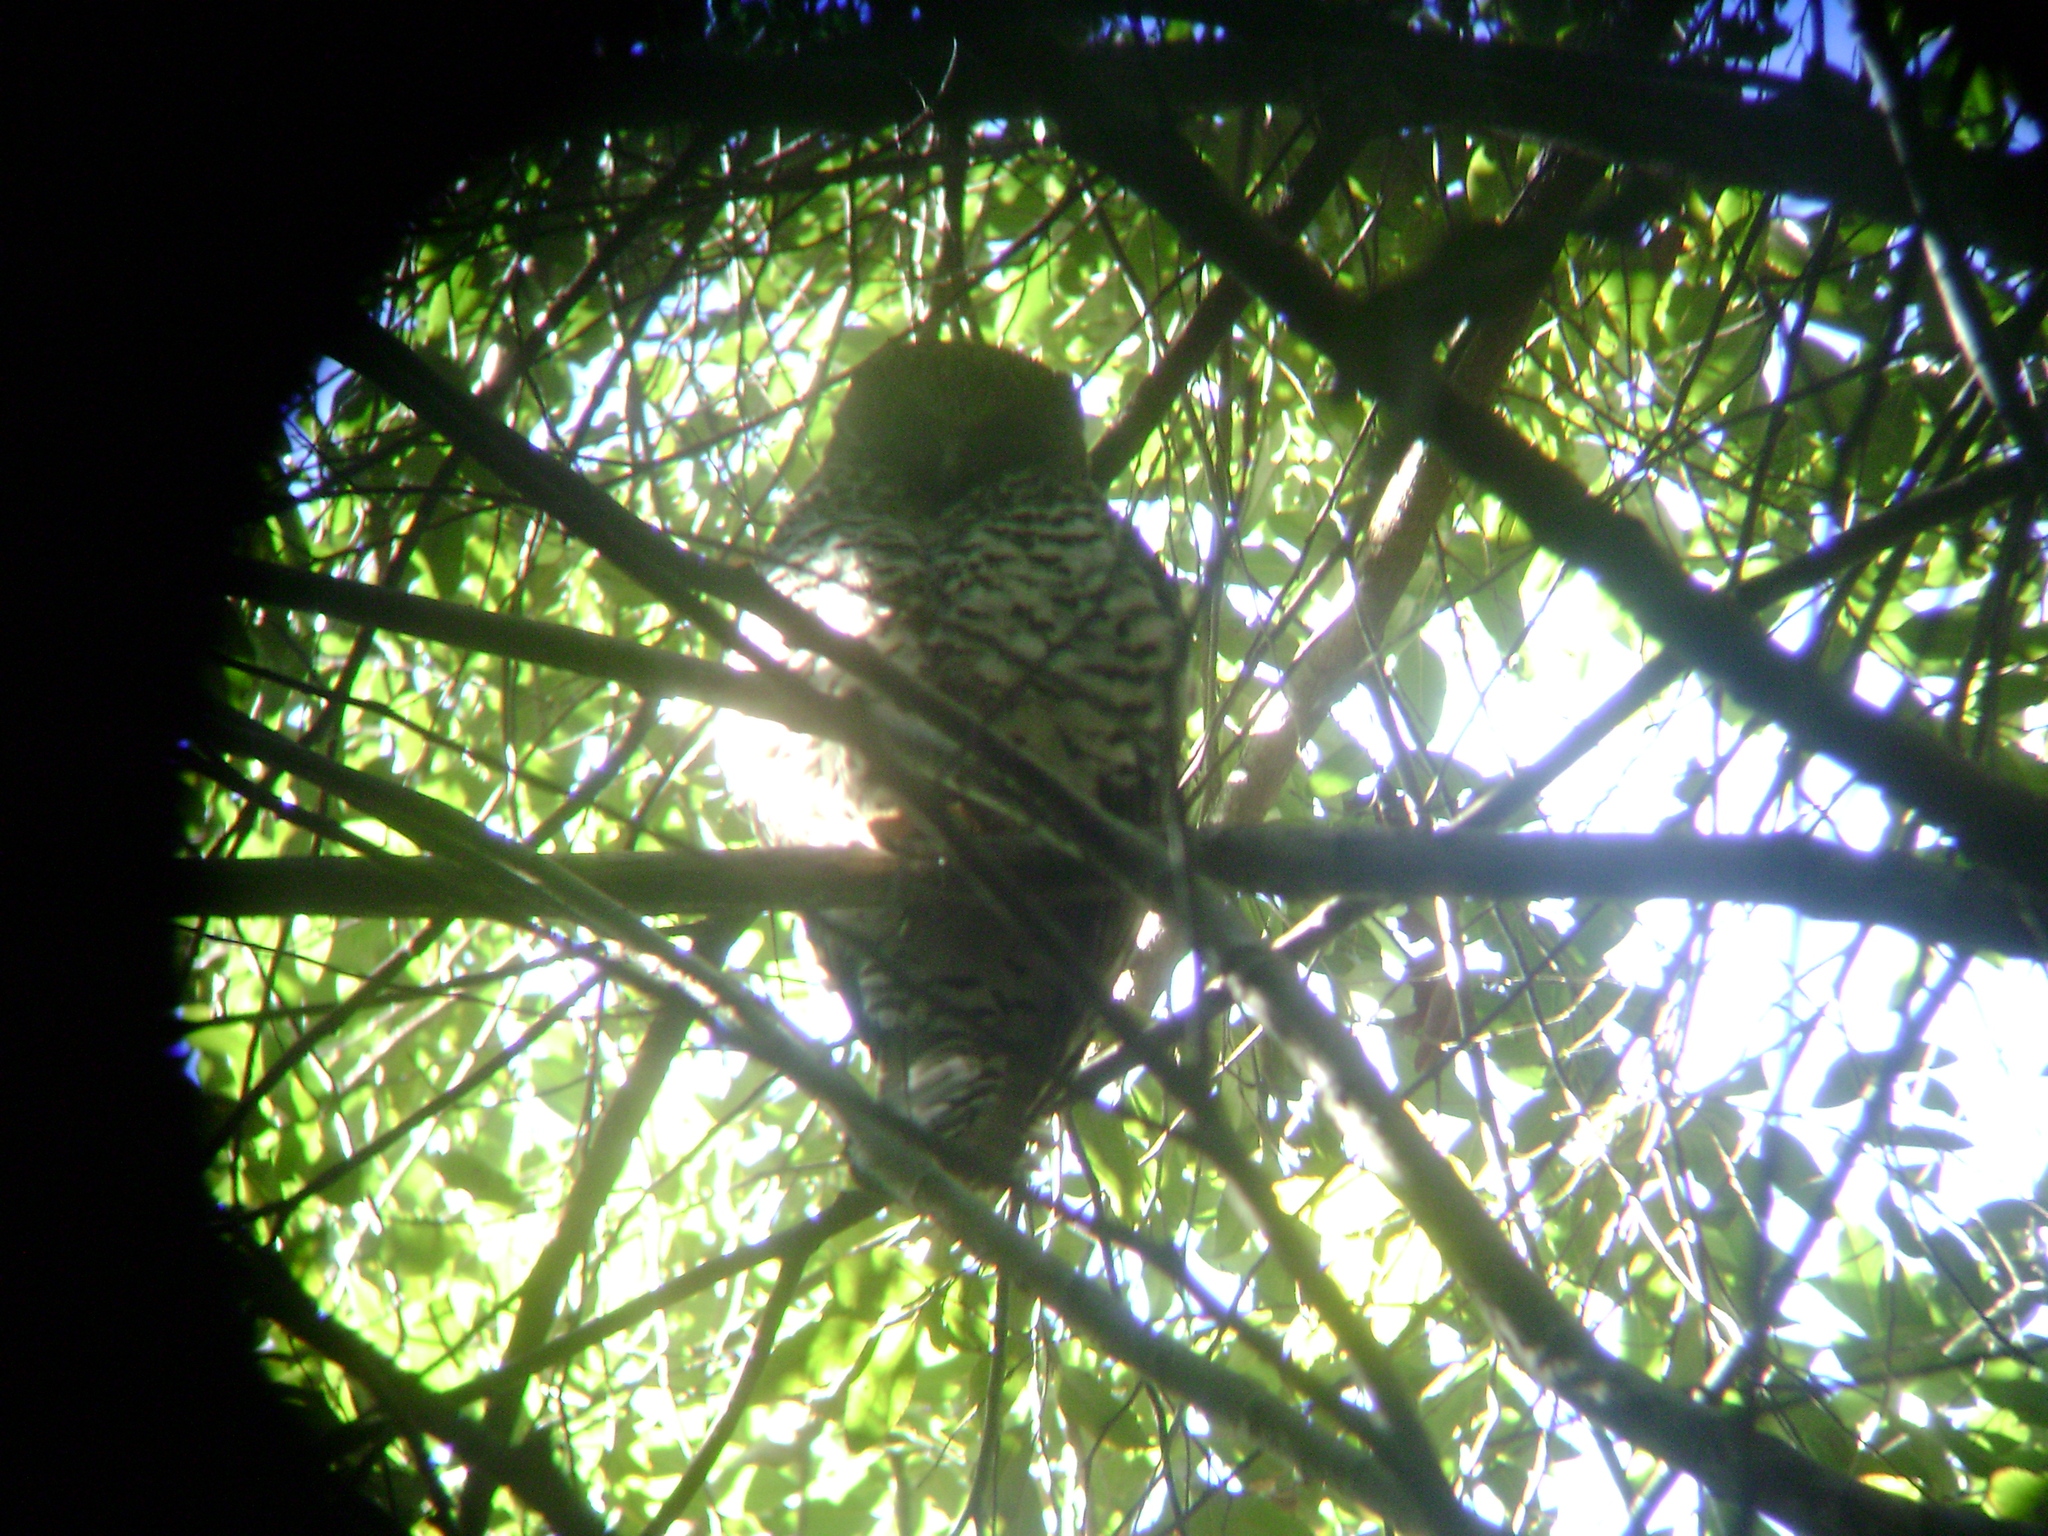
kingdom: Animalia
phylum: Chordata
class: Aves
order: Strigiformes
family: Strigidae
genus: Ninox
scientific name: Ninox strenua
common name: Powerful owl
